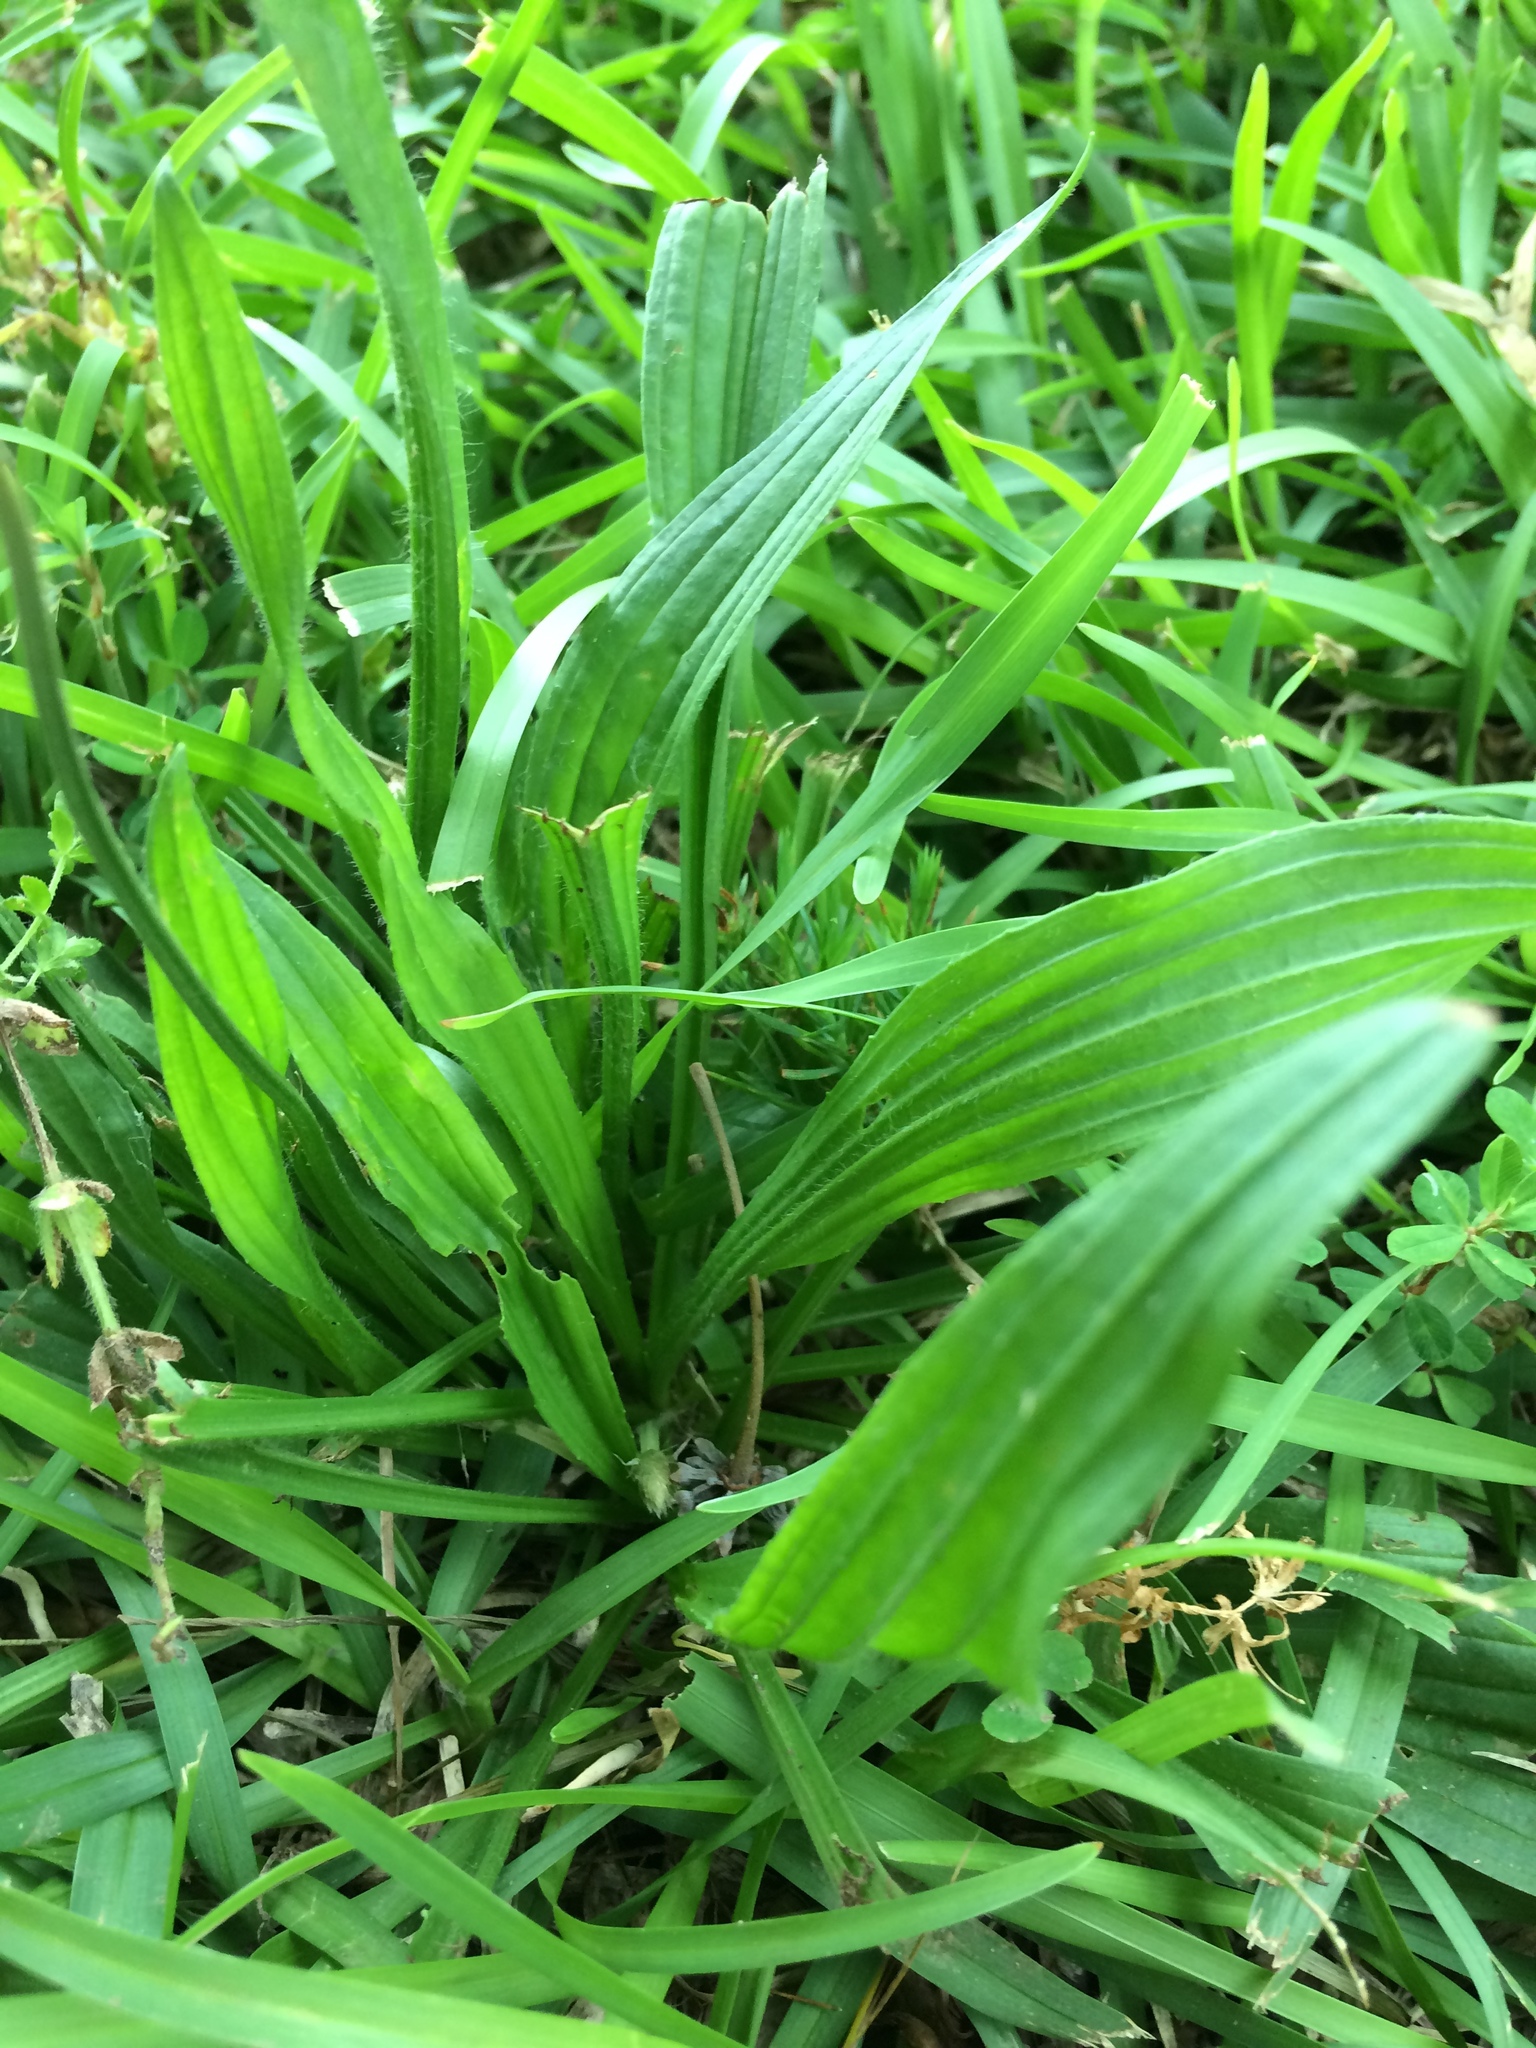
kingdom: Plantae
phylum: Tracheophyta
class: Magnoliopsida
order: Lamiales
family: Plantaginaceae
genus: Plantago
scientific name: Plantago lanceolata
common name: Ribwort plantain
